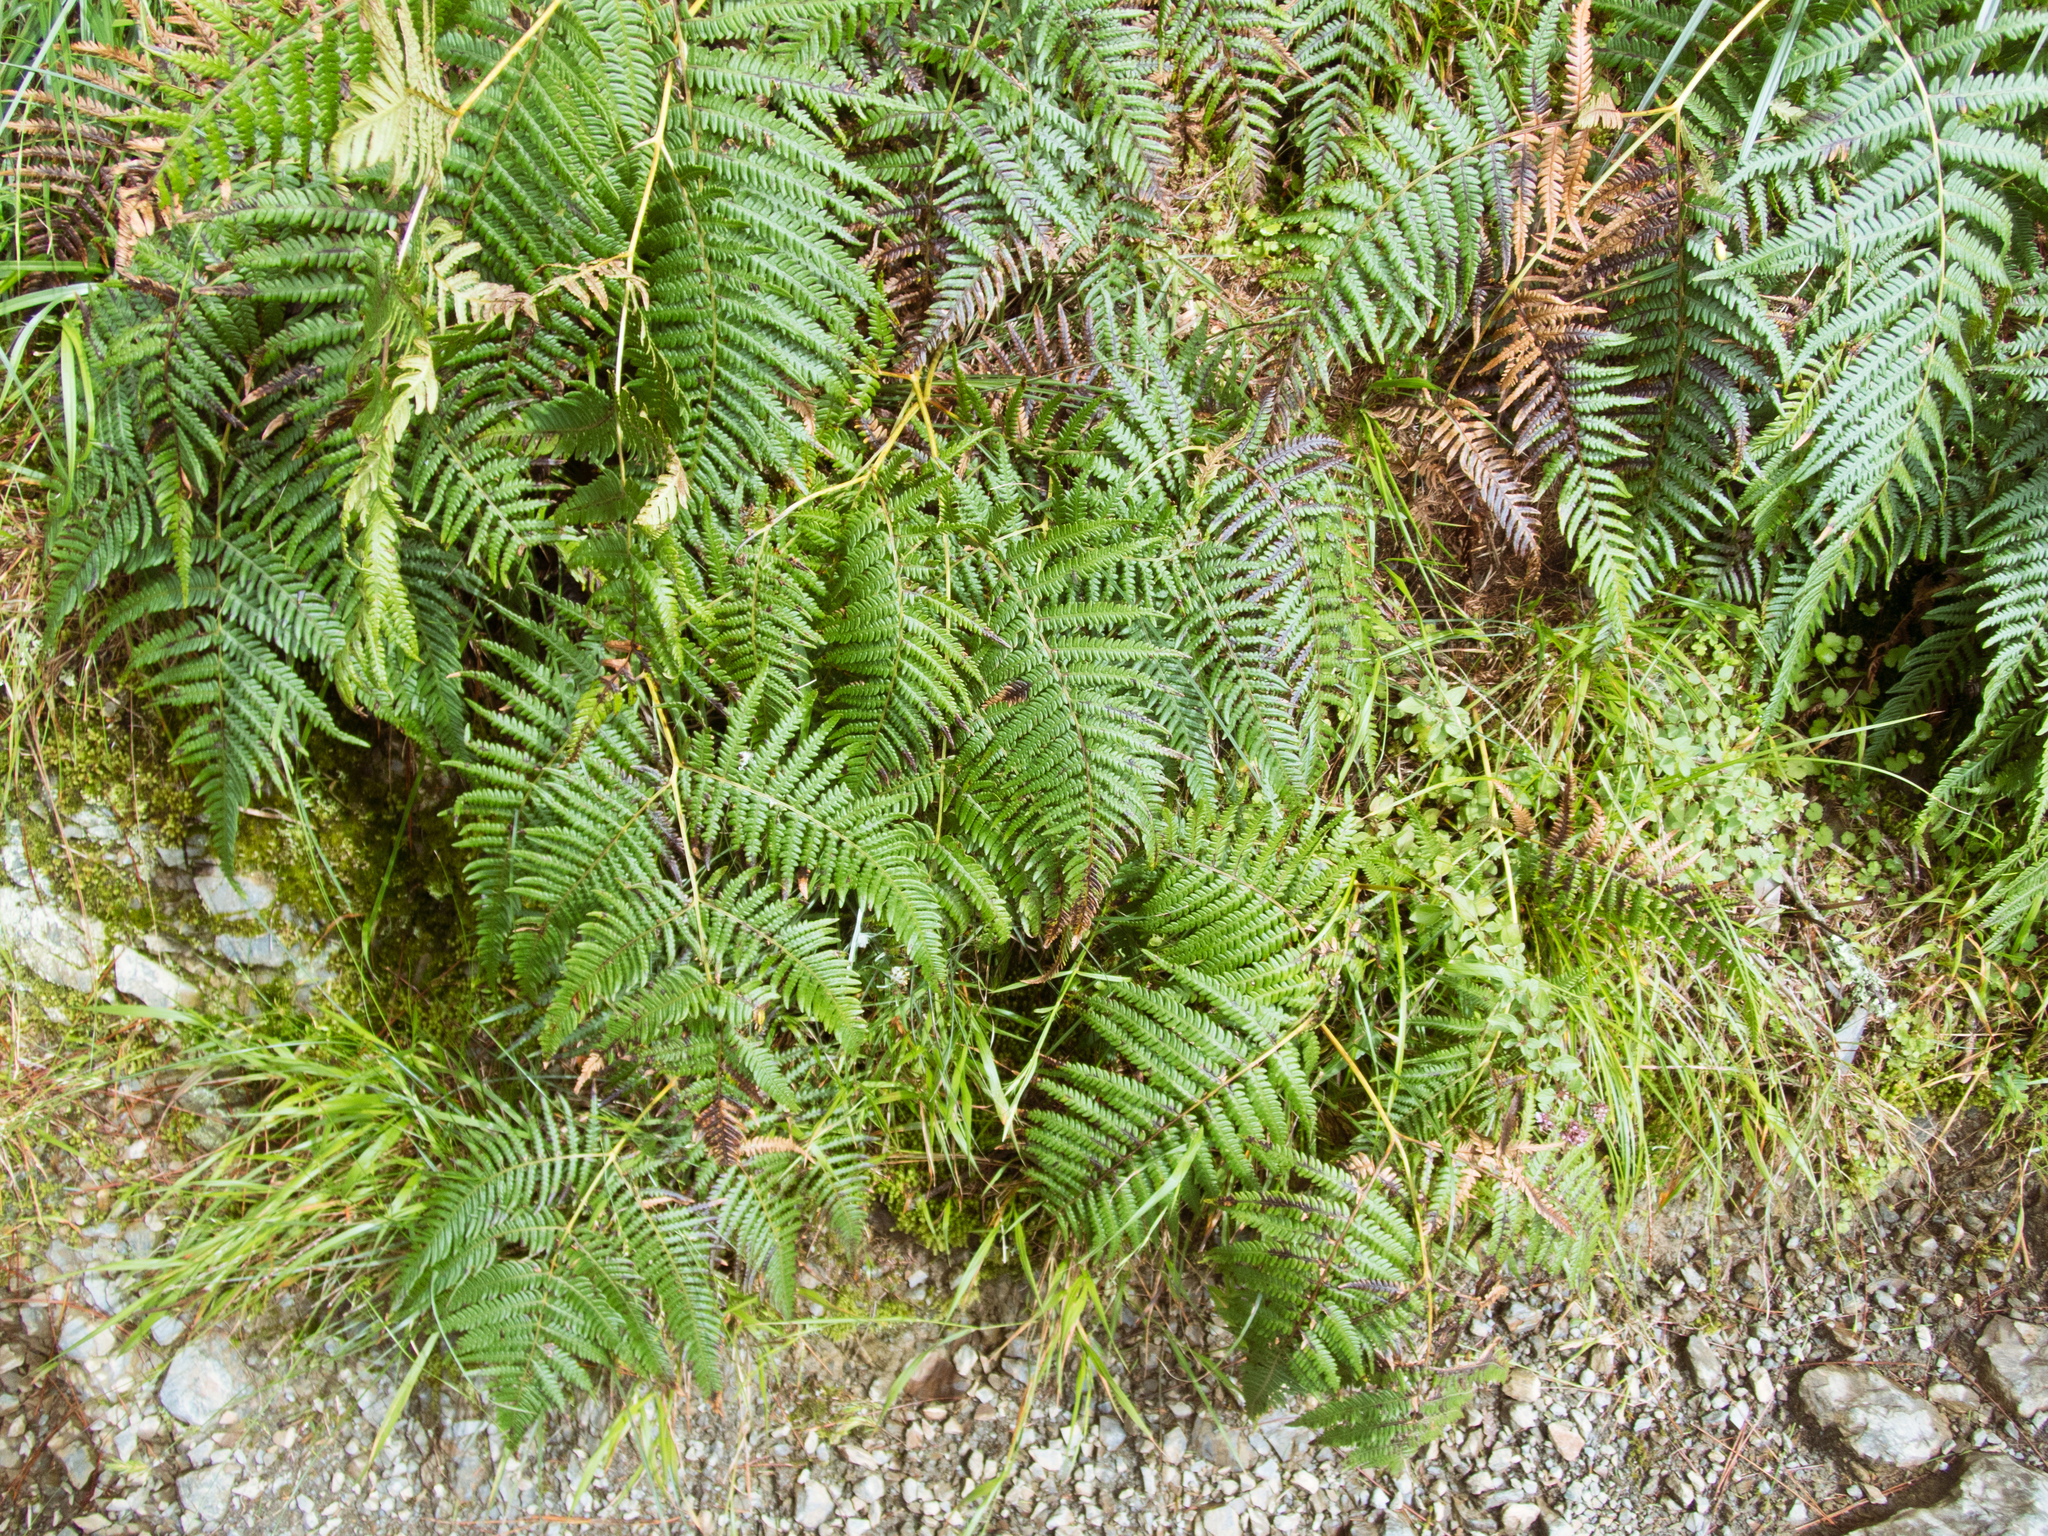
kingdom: Plantae
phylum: Tracheophyta
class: Polypodiopsida
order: Polypodiales
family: Dennstaedtiaceae
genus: Pteridium
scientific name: Pteridium aquilinum
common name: Bracken
